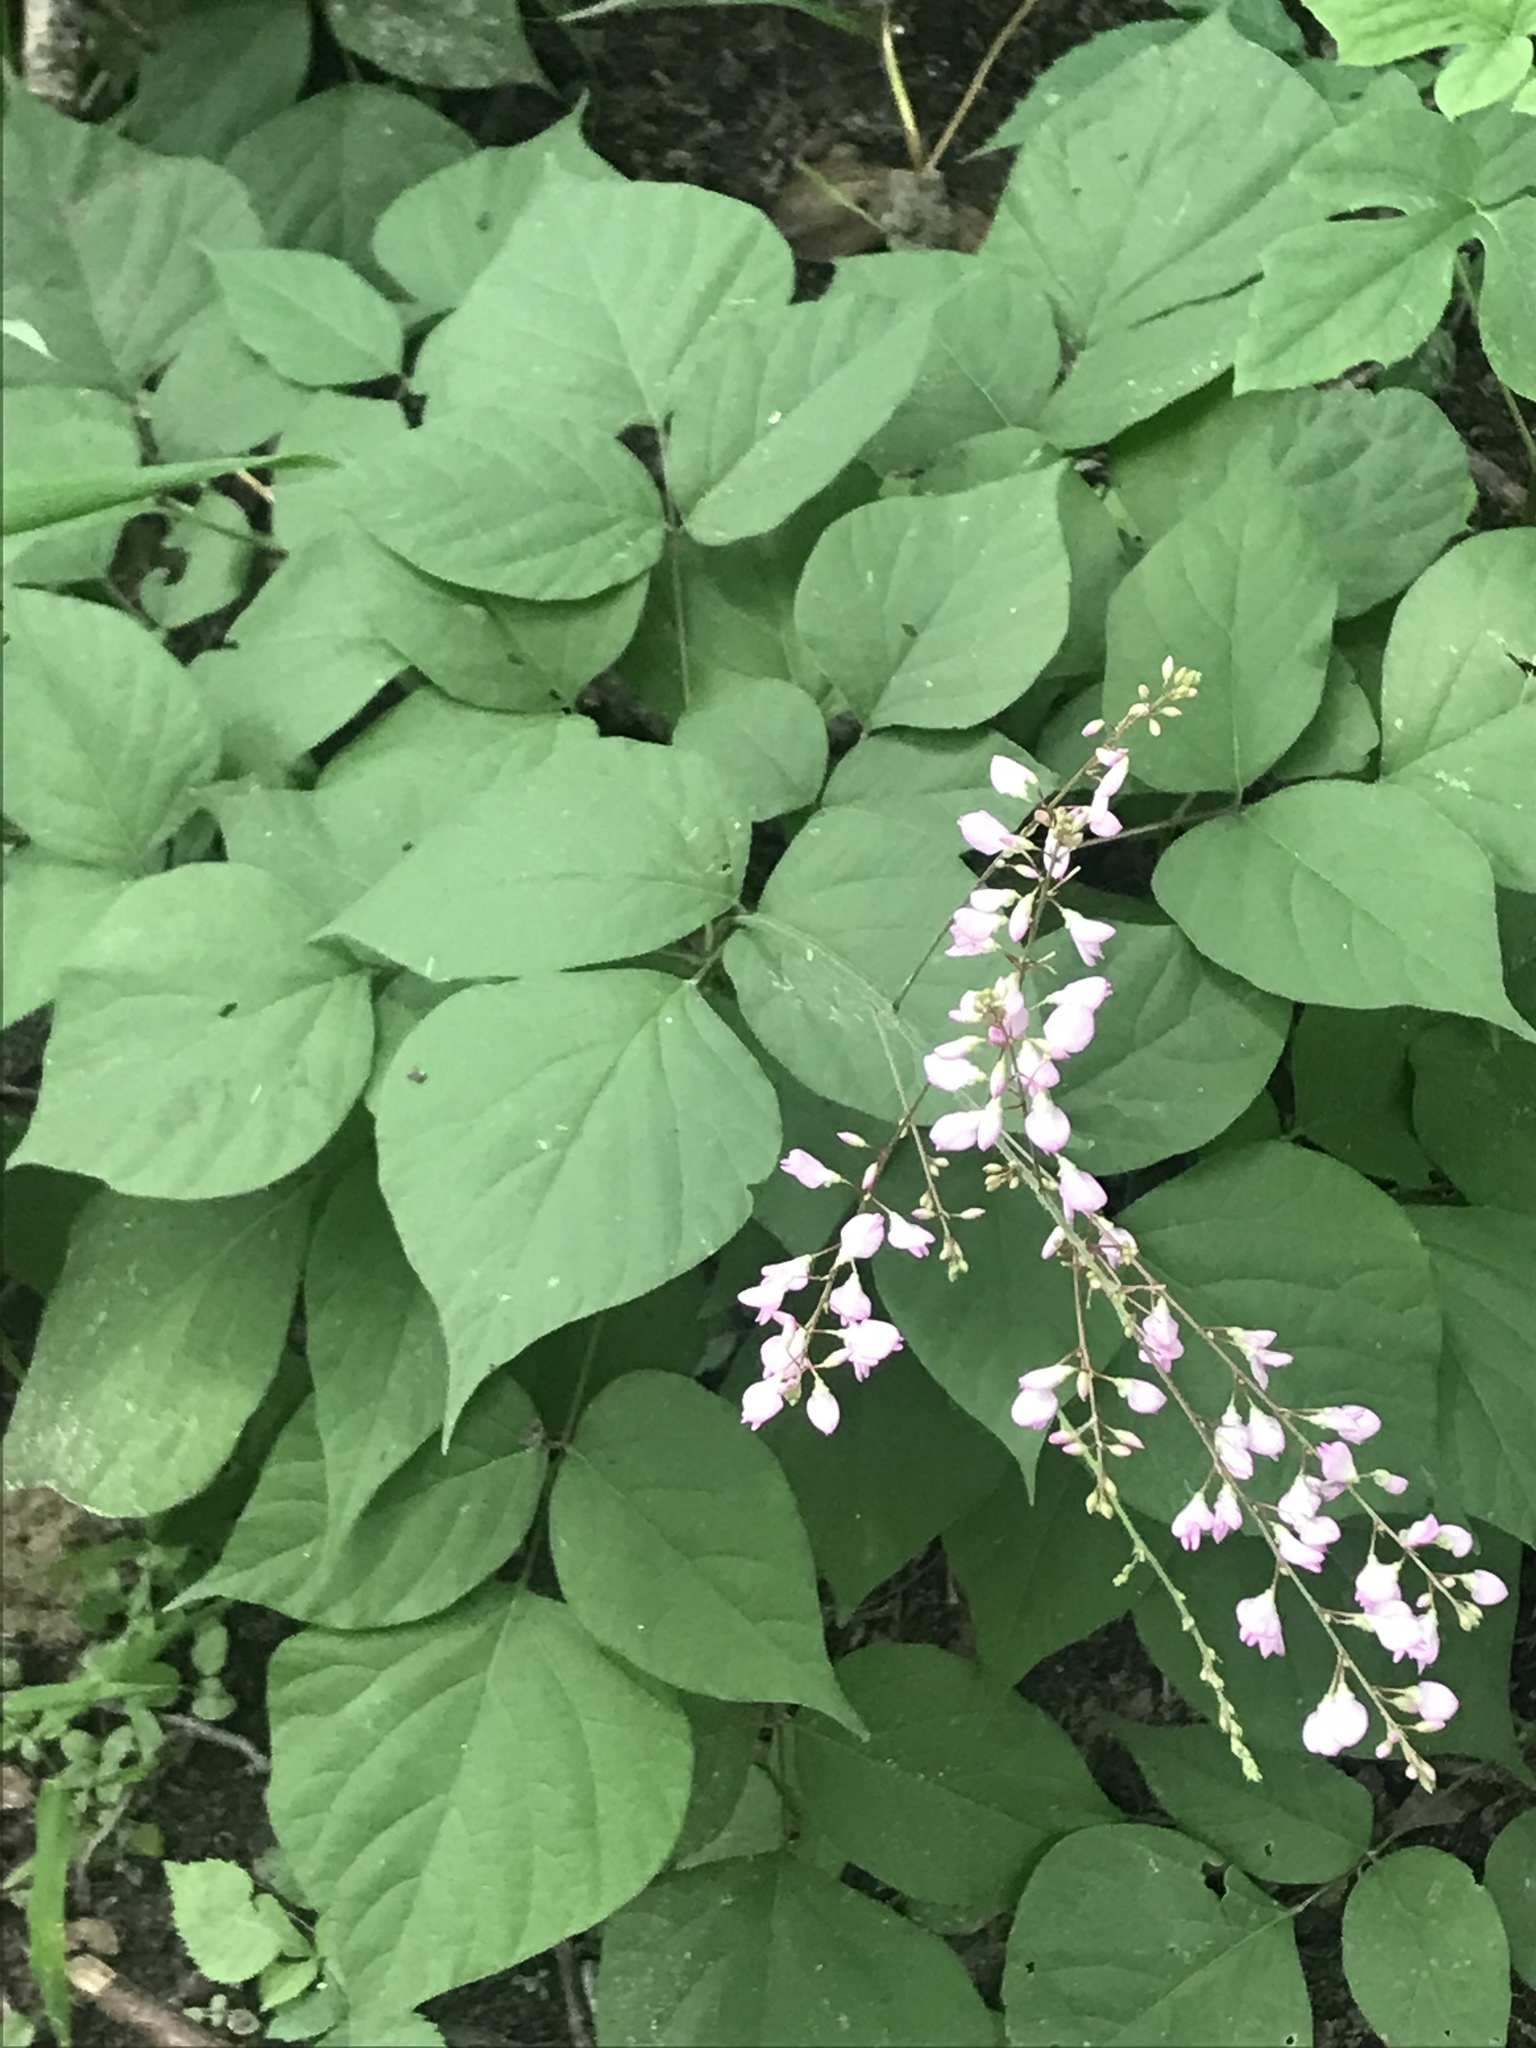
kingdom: Plantae
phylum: Tracheophyta
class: Magnoliopsida
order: Fabales
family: Fabaceae
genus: Hylodesmum
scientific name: Hylodesmum glutinosum
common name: Clustered-leaved tick-trefoil
